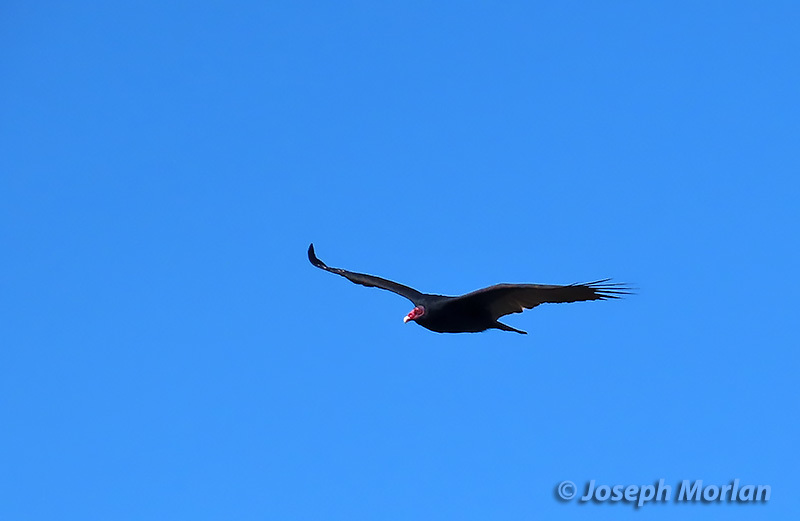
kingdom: Animalia
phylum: Chordata
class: Aves
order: Accipitriformes
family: Cathartidae
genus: Cathartes
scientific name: Cathartes aura
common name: Turkey vulture
